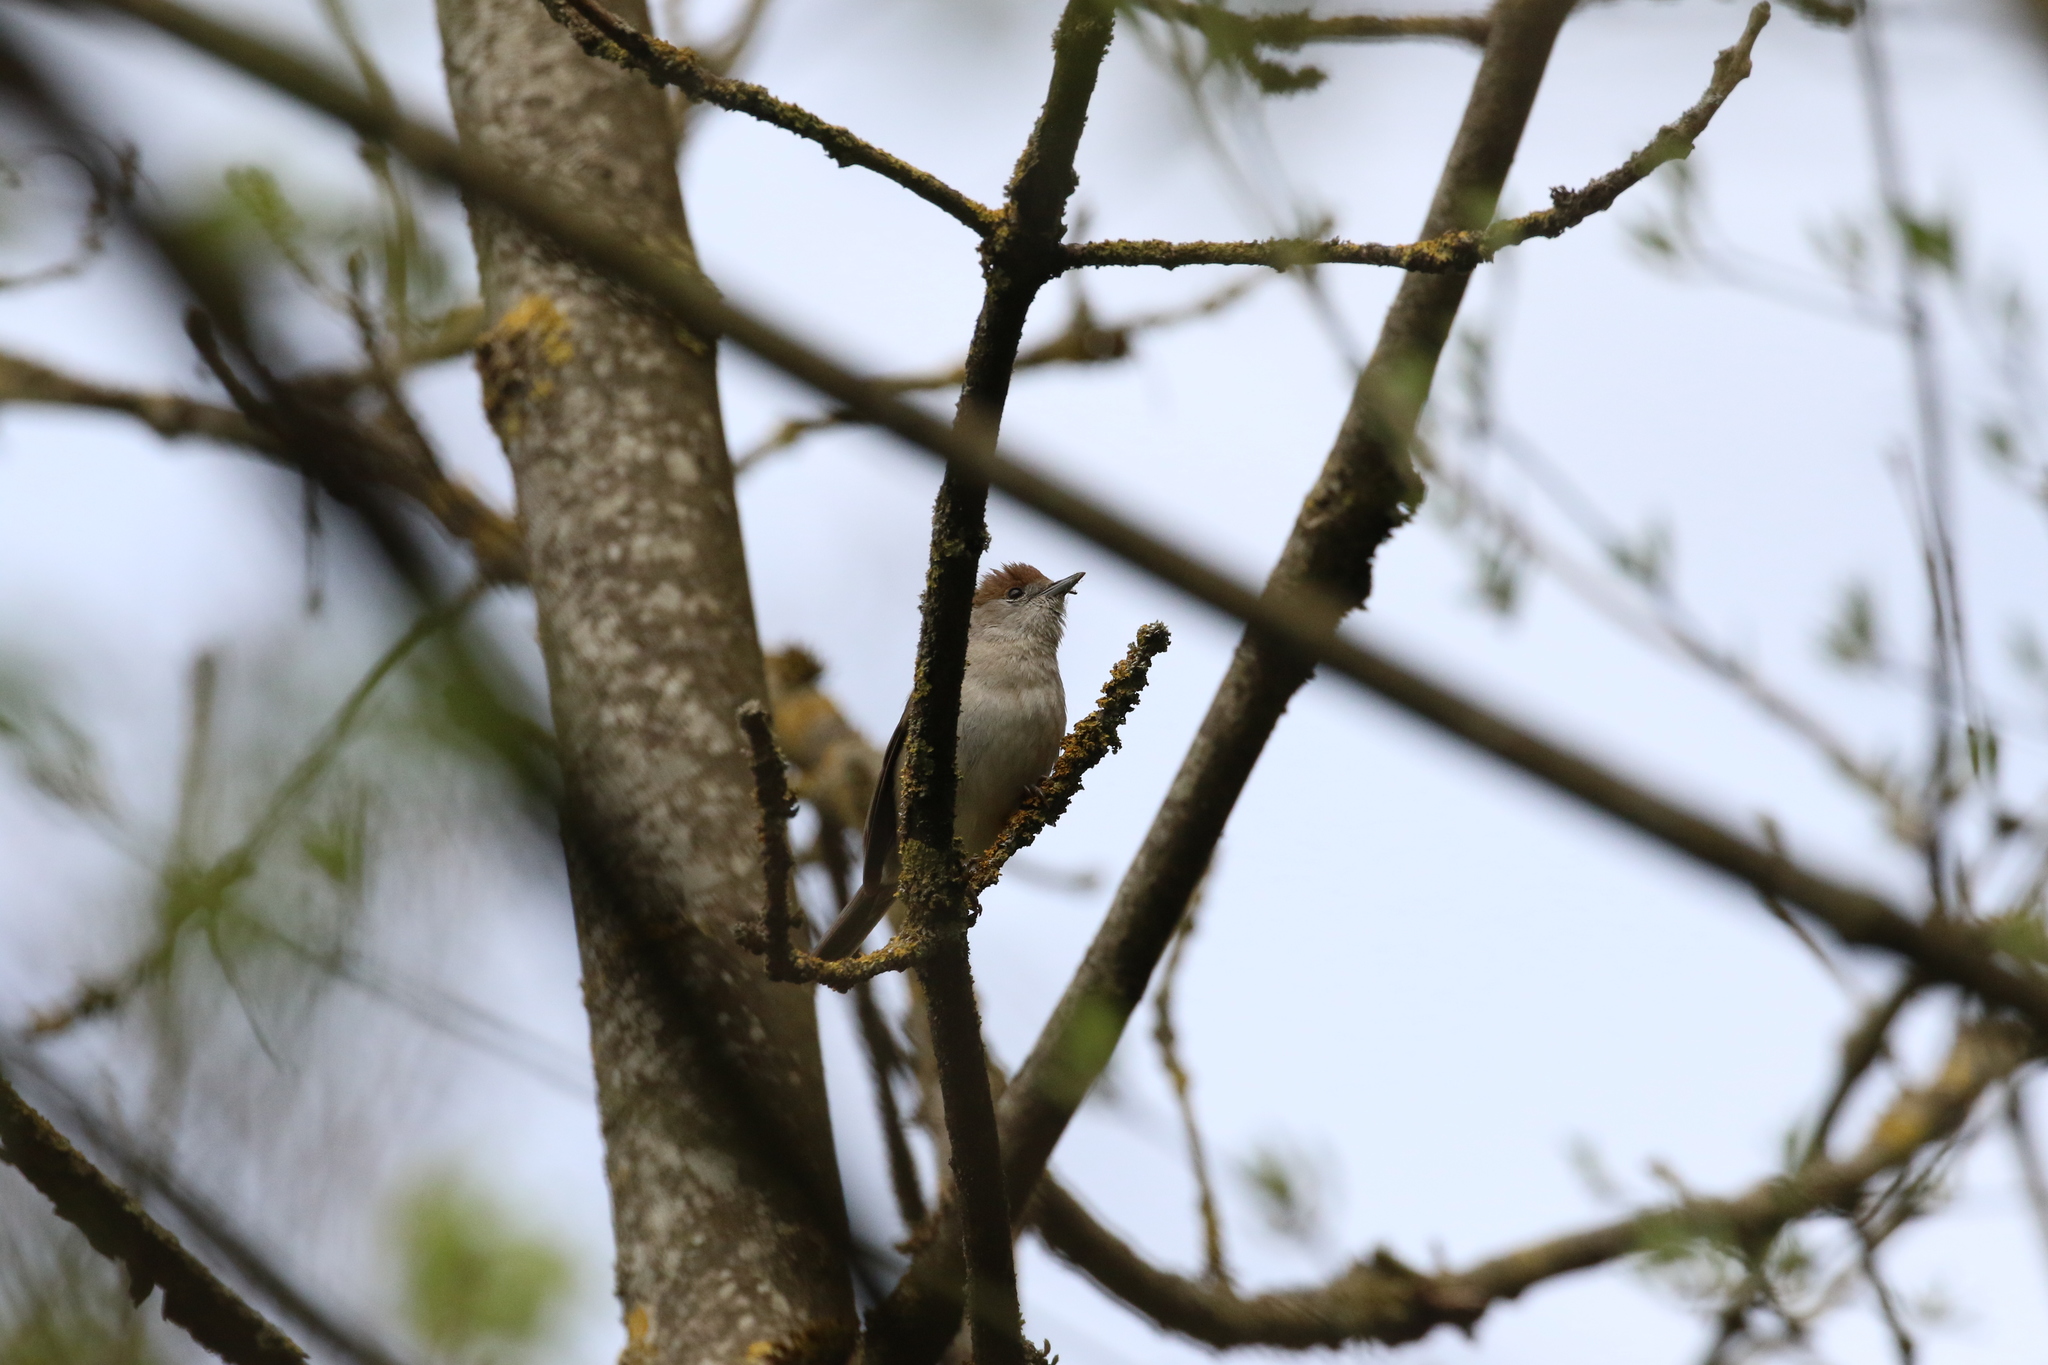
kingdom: Animalia
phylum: Chordata
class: Aves
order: Passeriformes
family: Sylviidae
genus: Sylvia
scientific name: Sylvia atricapilla
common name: Eurasian blackcap
